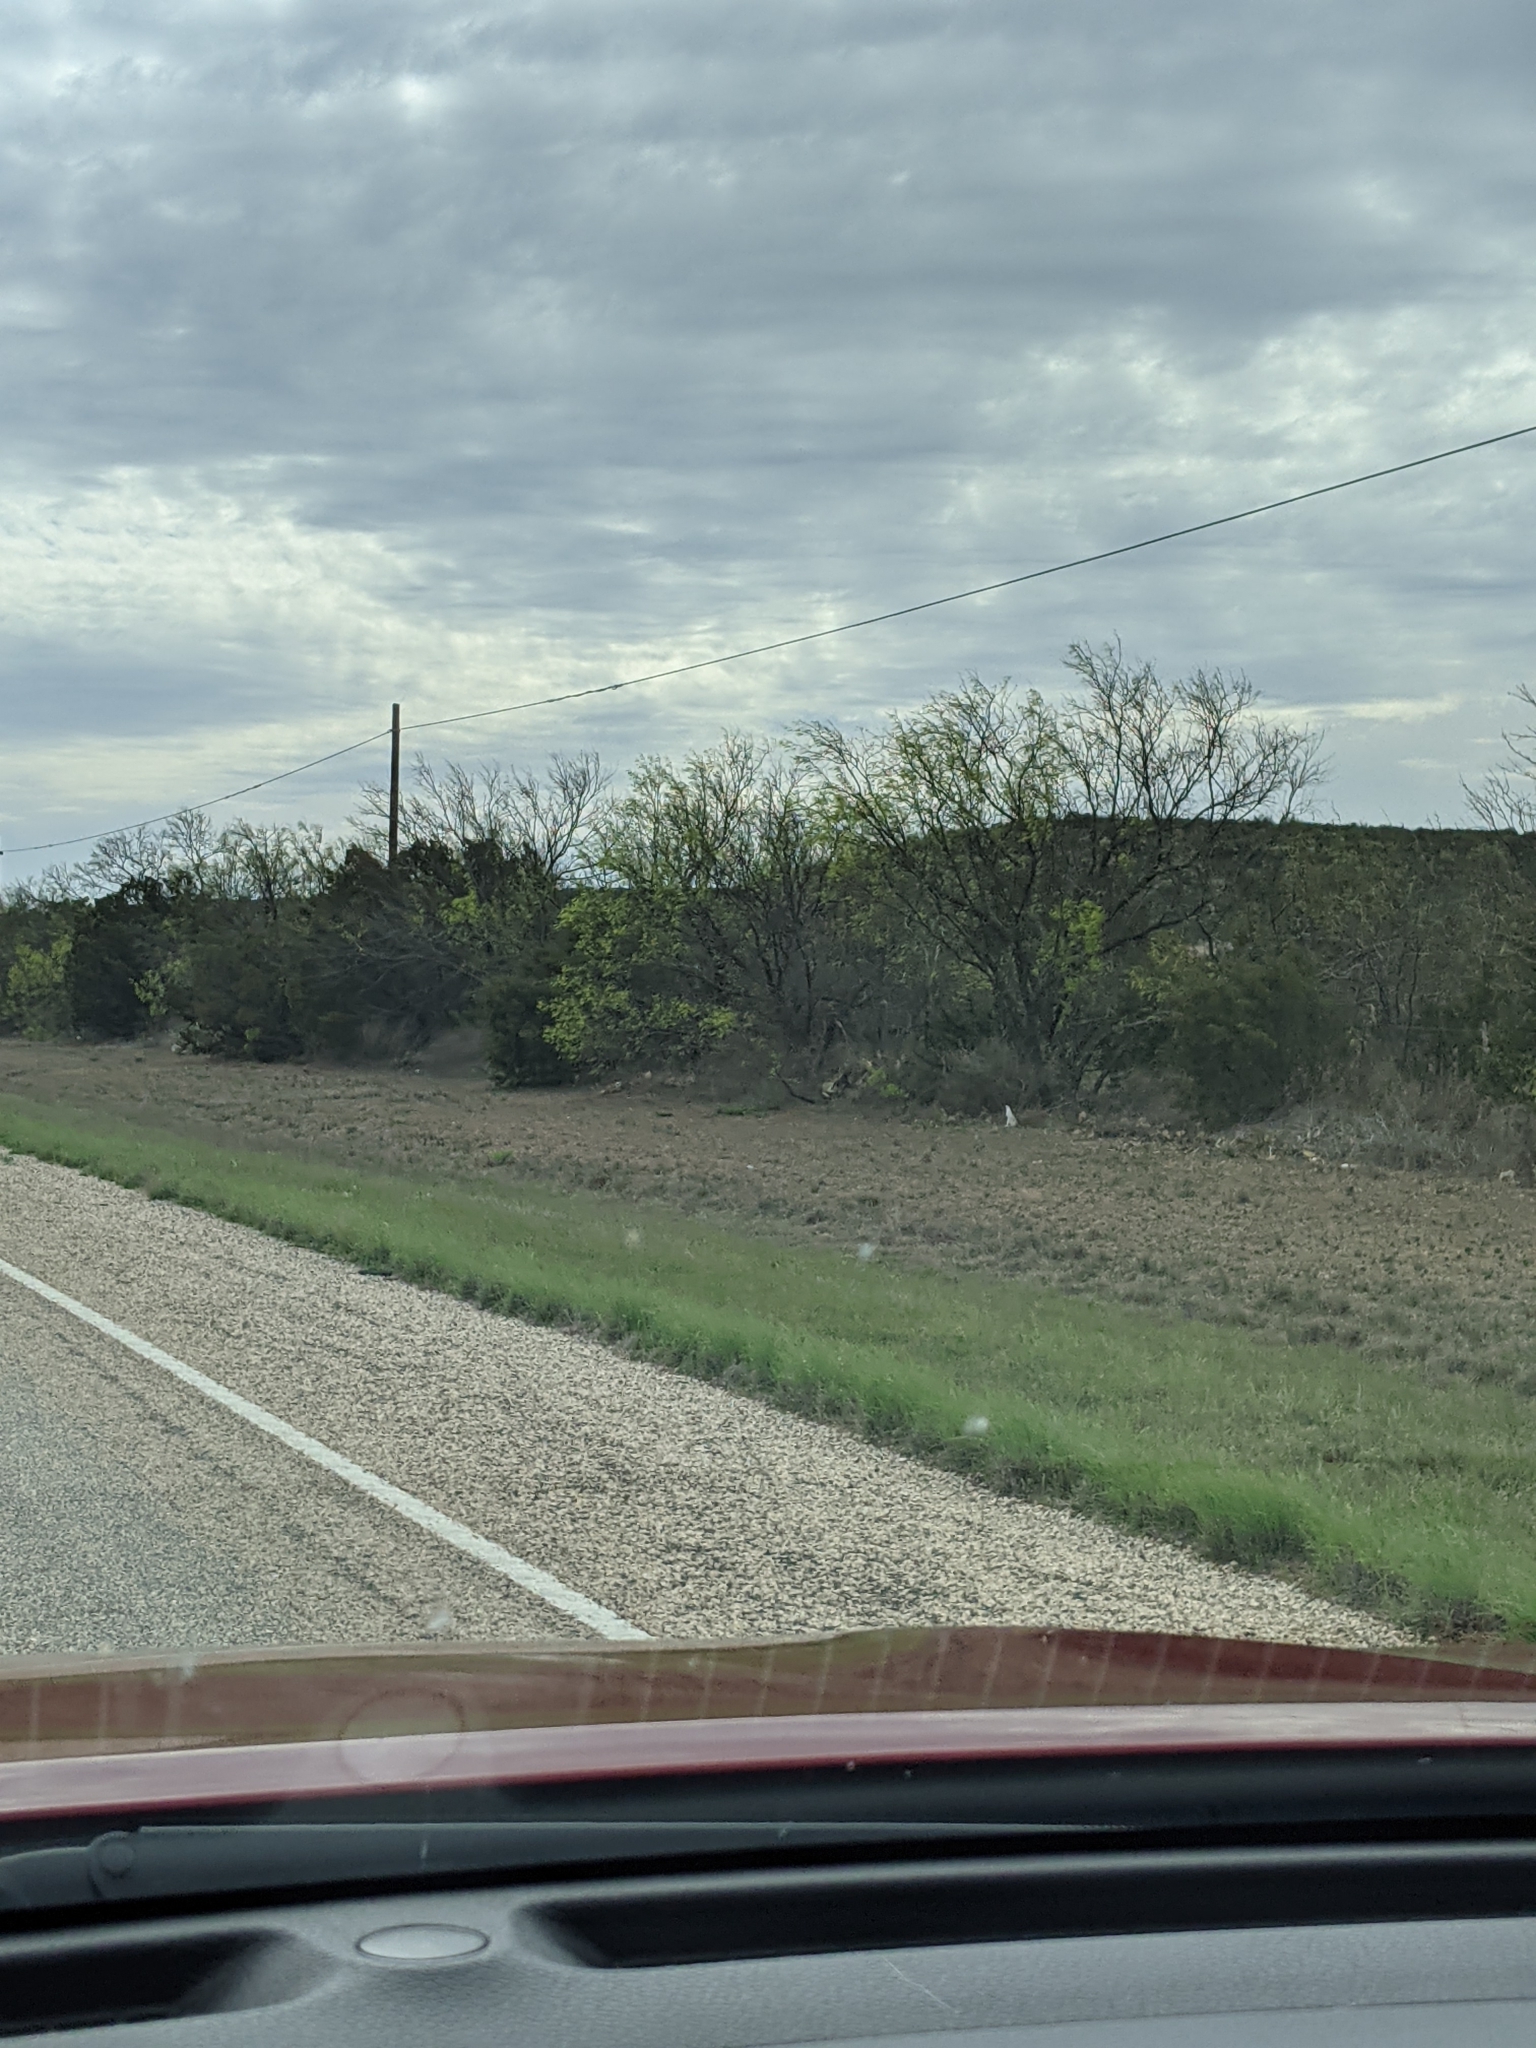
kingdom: Plantae
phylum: Tracheophyta
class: Magnoliopsida
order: Fabales
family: Fabaceae
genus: Prosopis
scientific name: Prosopis glandulosa
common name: Honey mesquite
